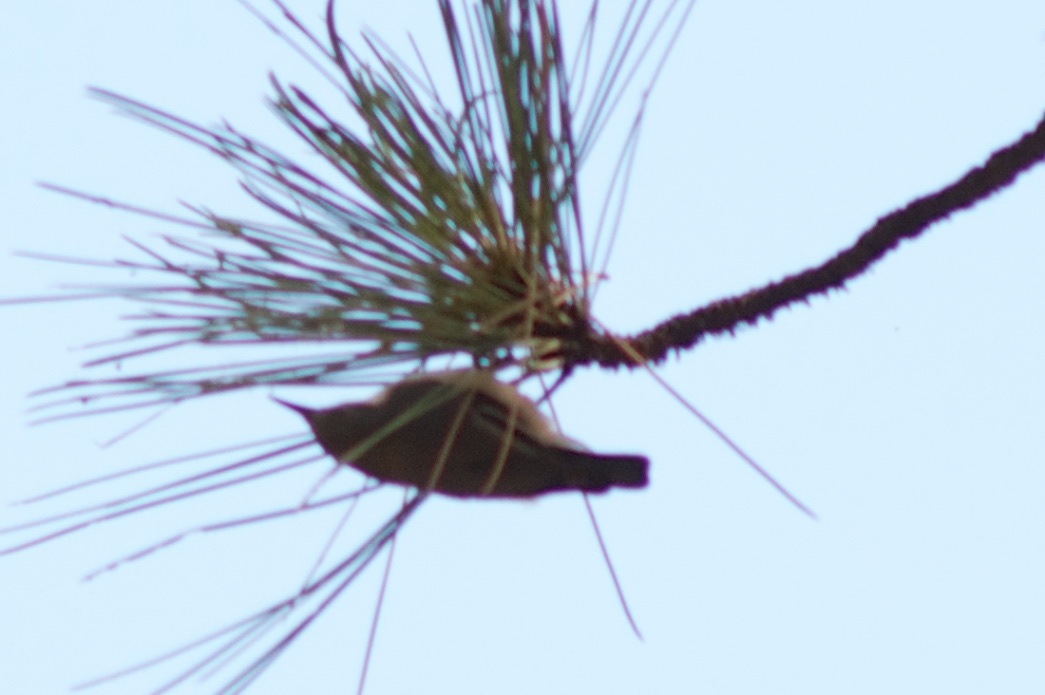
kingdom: Animalia
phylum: Chordata
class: Aves
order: Passeriformes
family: Sittidae
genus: Sitta
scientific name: Sitta pygmaea
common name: Pygmy nuthatch
